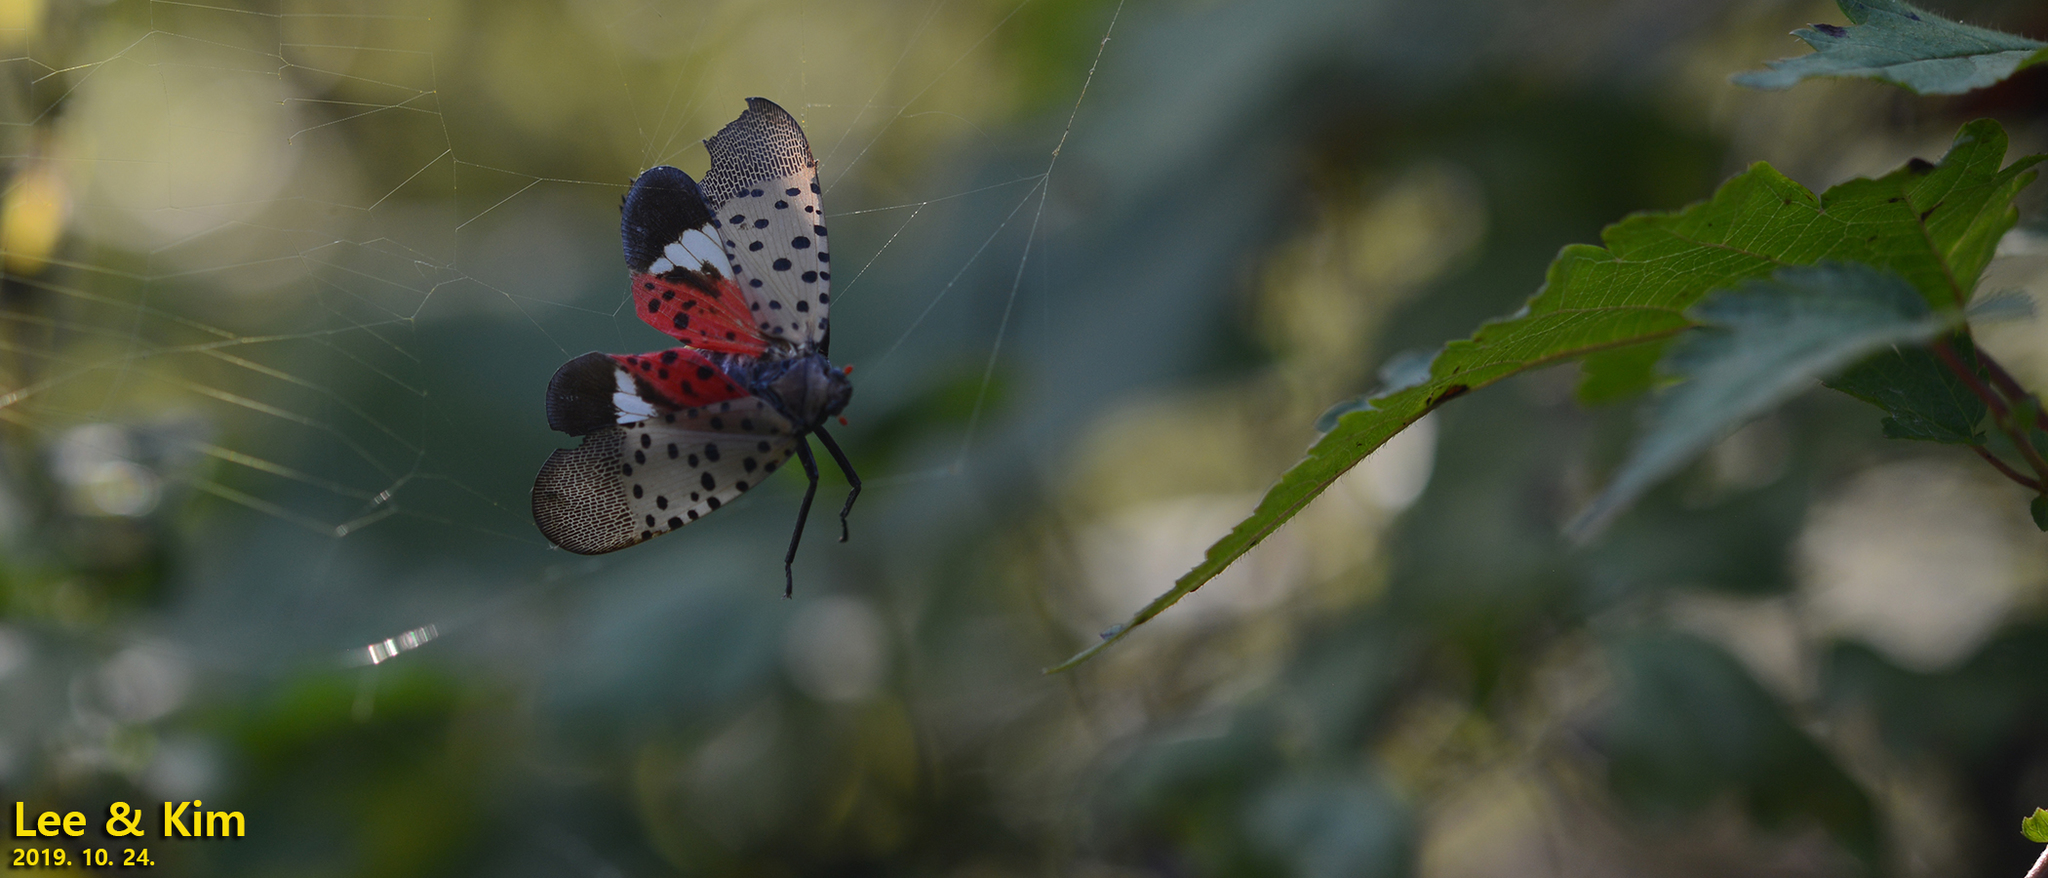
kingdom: Animalia
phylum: Arthropoda
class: Insecta
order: Hemiptera
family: Fulgoridae
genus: Lycorma
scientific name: Lycorma delicatula
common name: Spotted lanternfly
